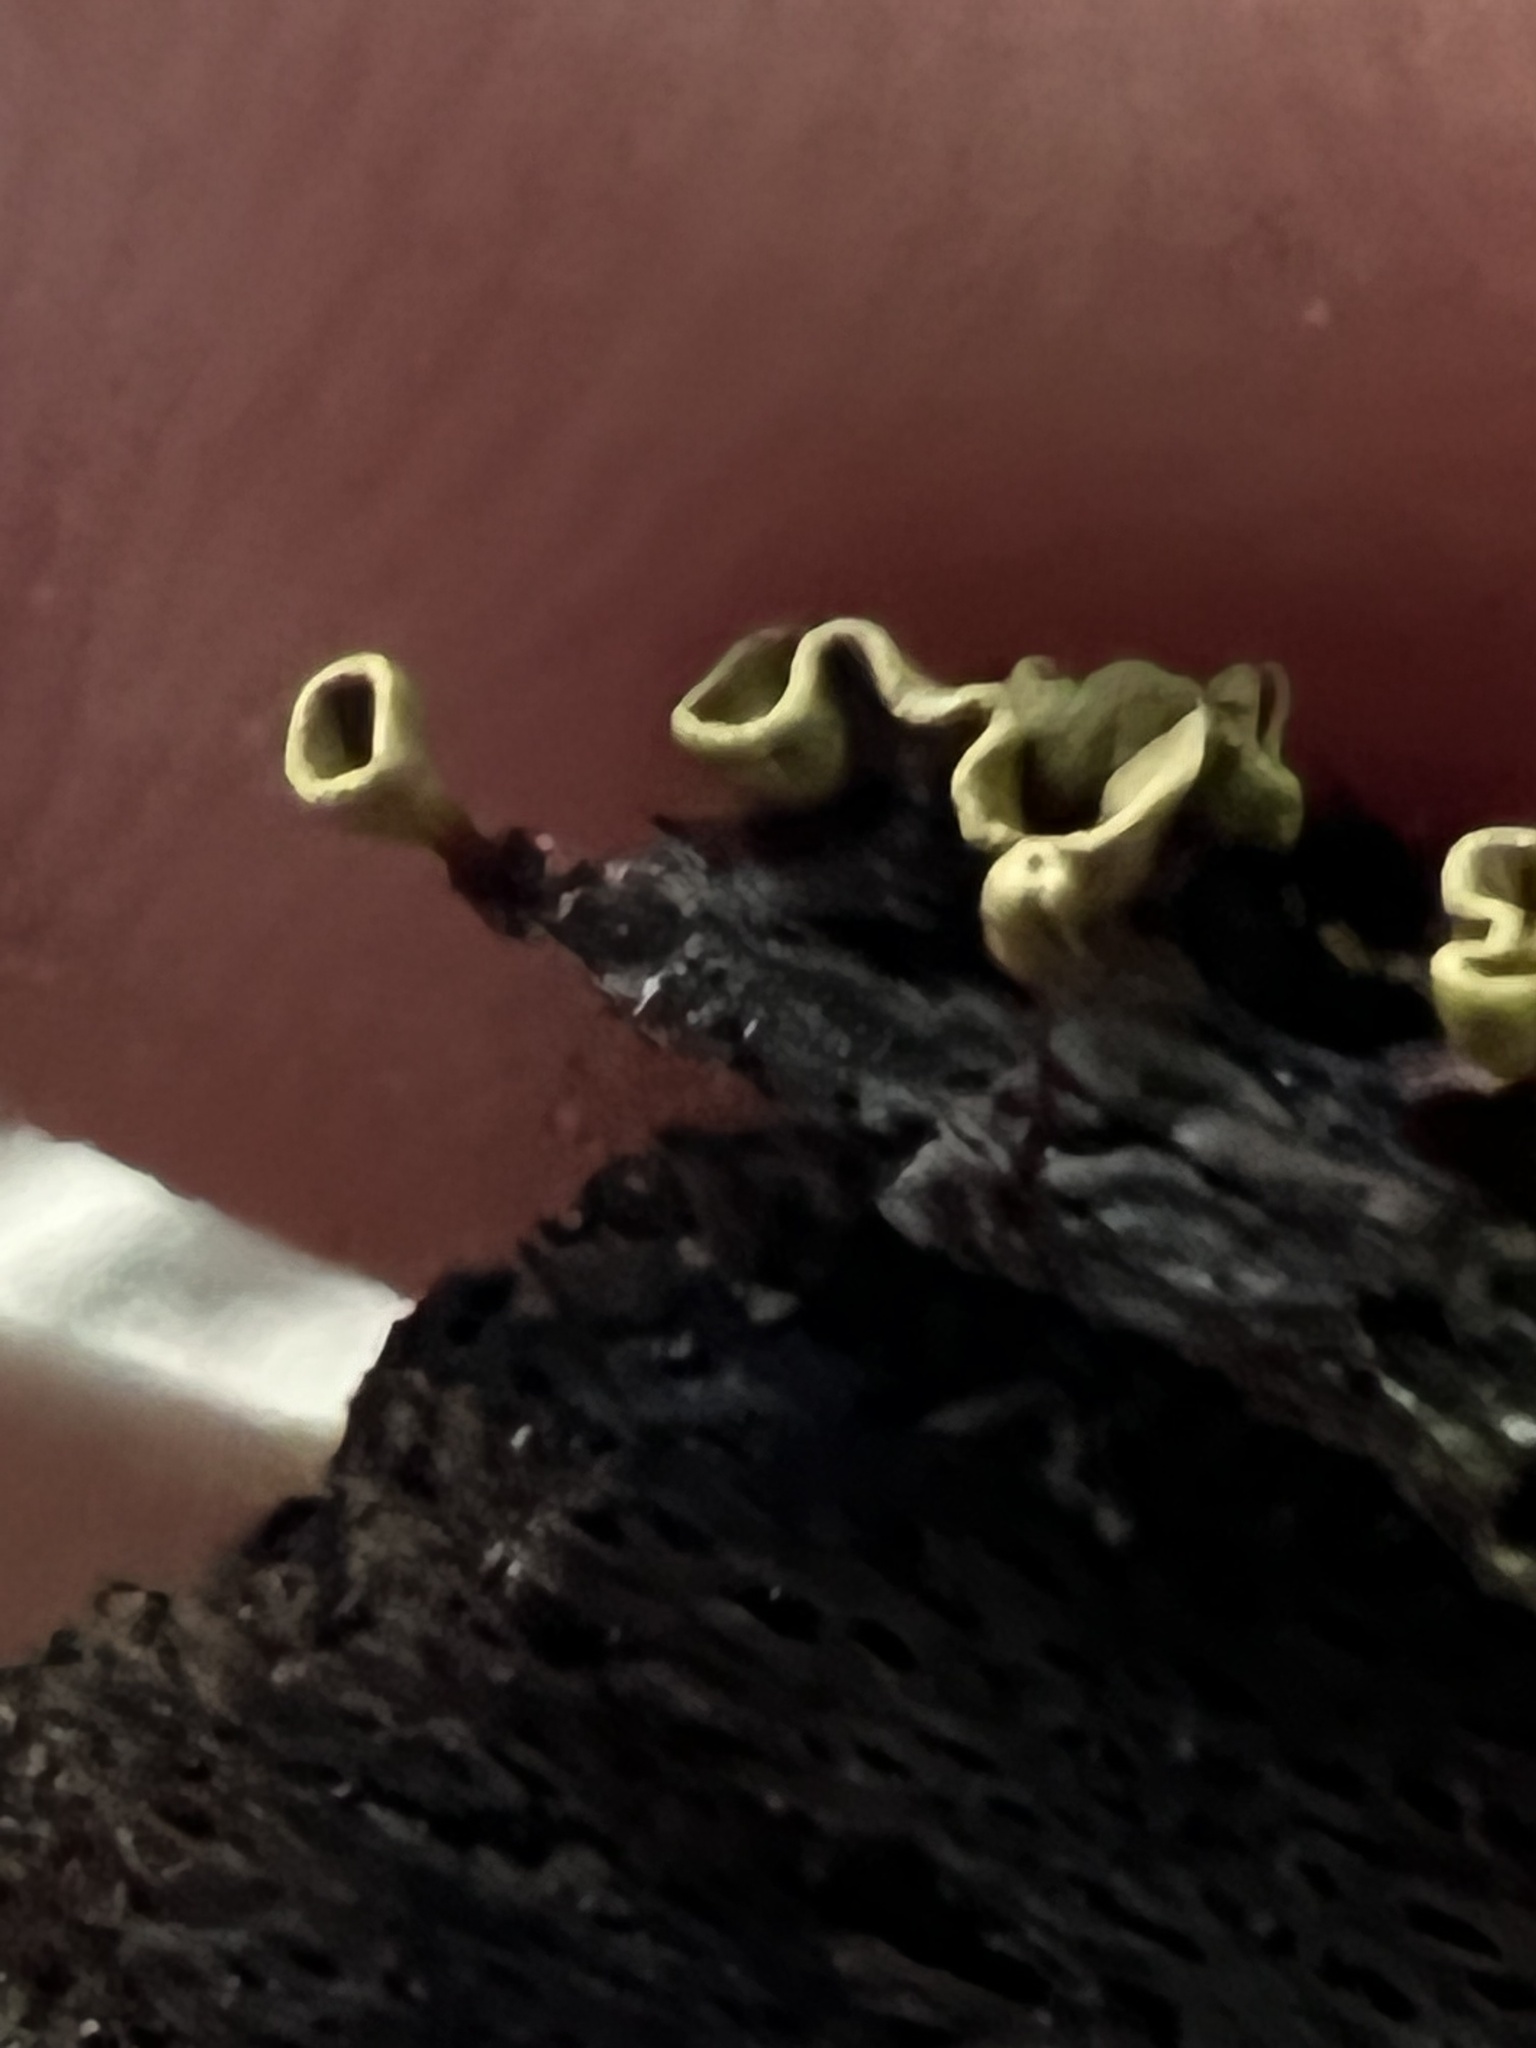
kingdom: Protozoa
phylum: Mycetozoa
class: Myxomycetes
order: Physarales
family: Physaraceae
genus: Physarella
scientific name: Physarella oblonga
